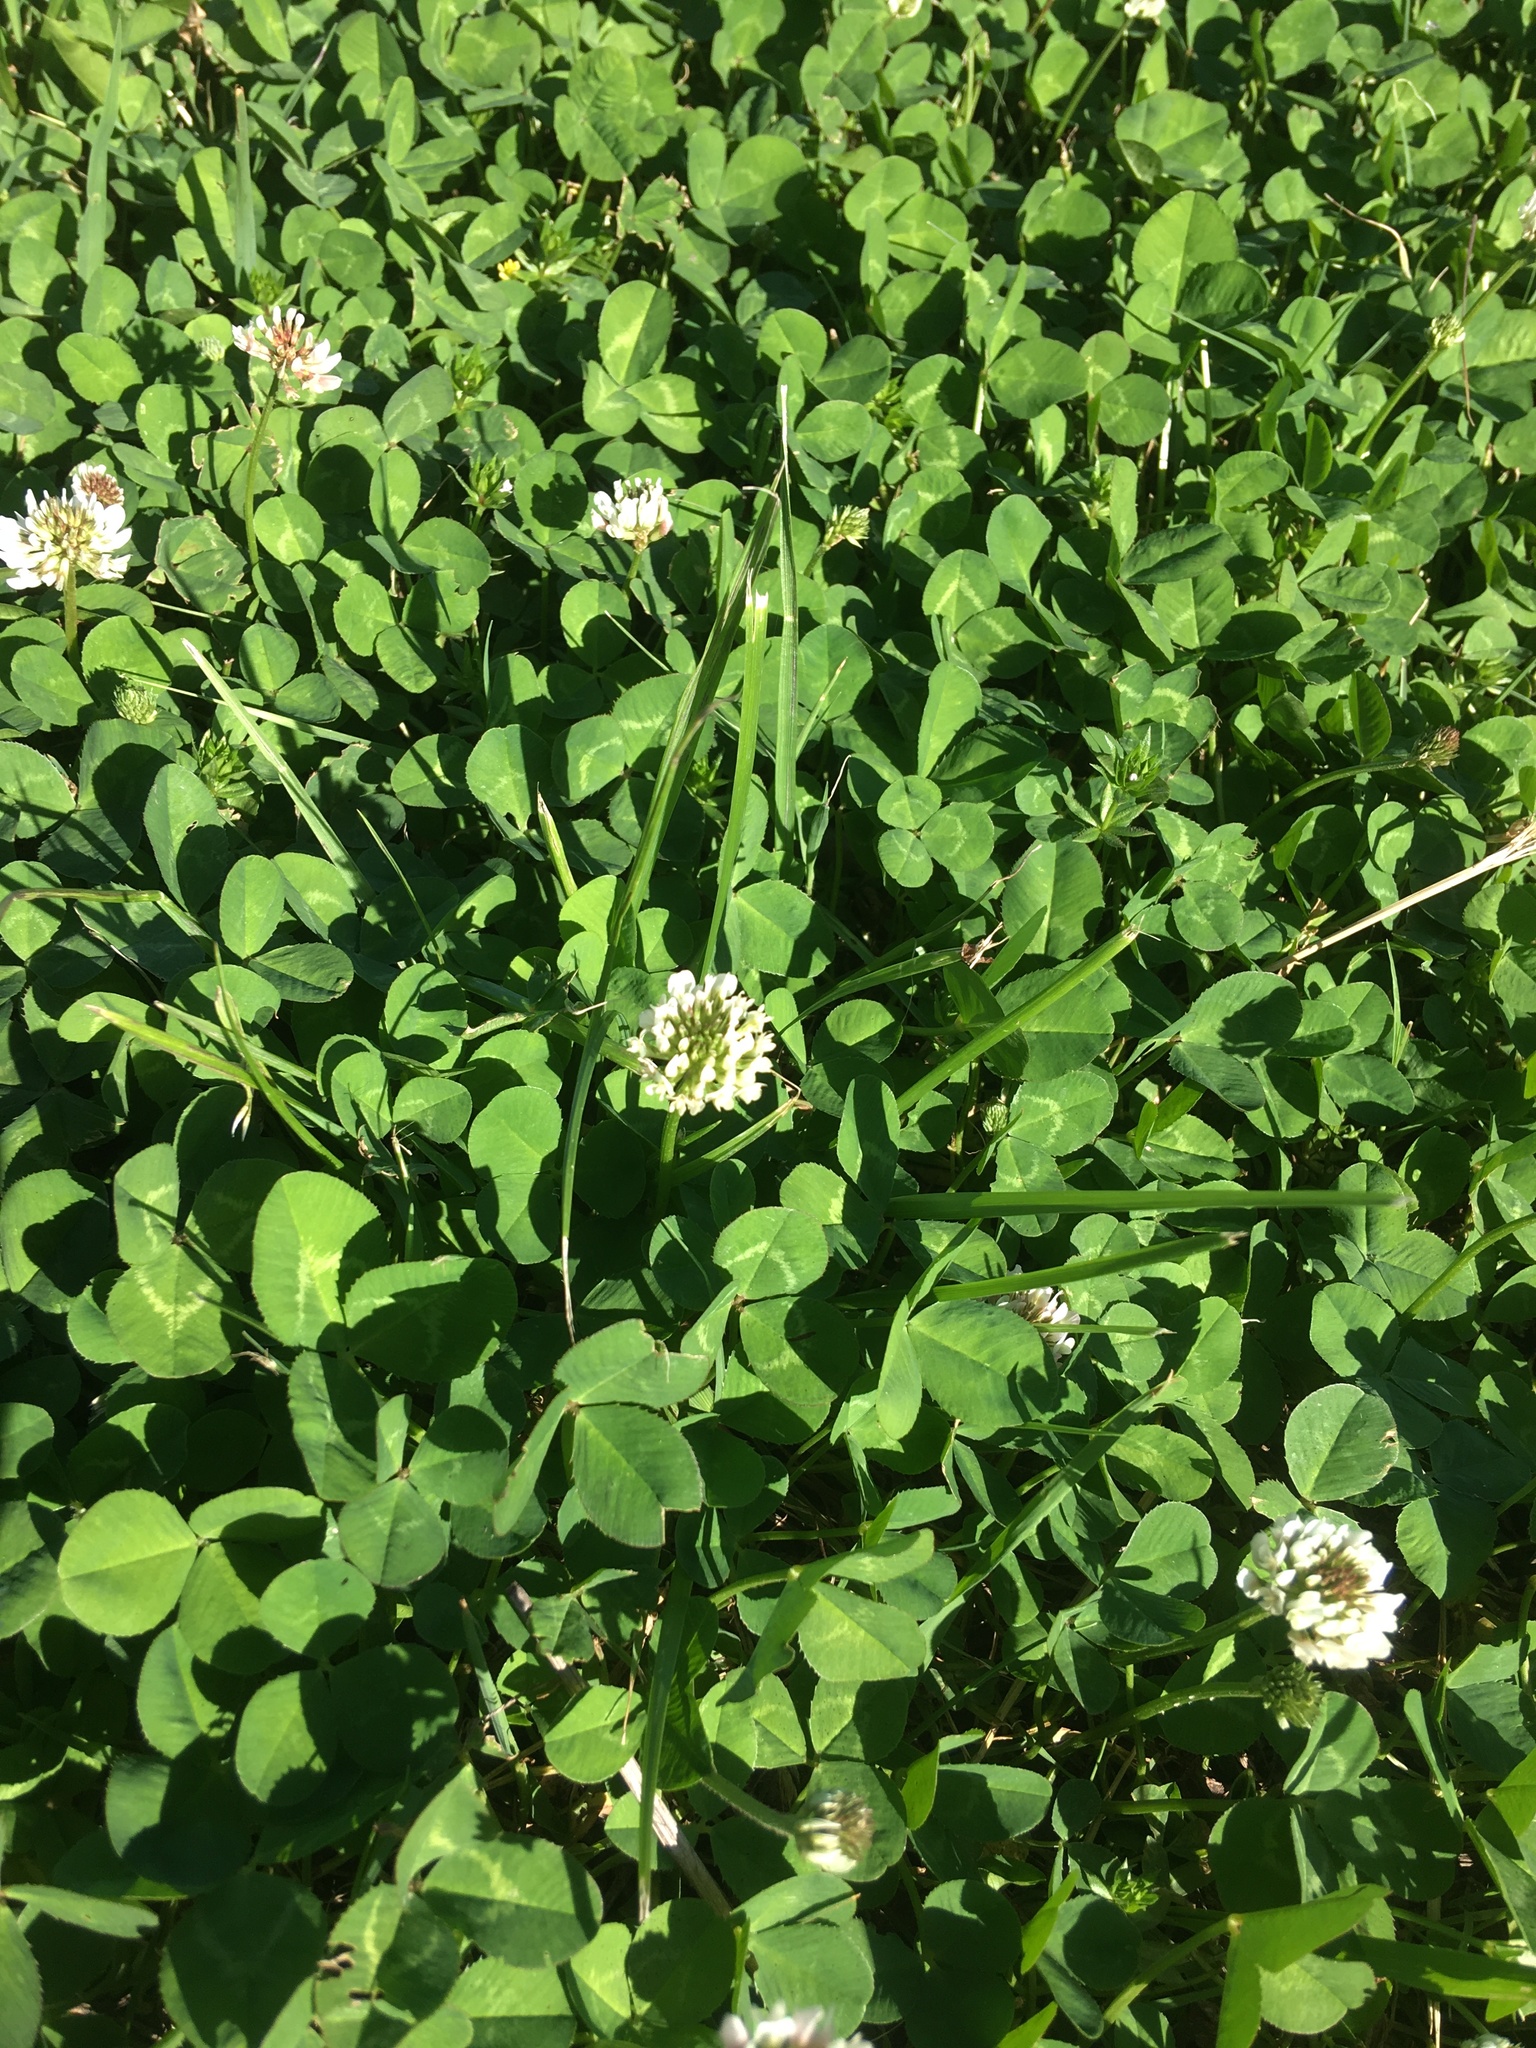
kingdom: Plantae
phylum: Tracheophyta
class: Magnoliopsida
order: Fabales
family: Fabaceae
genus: Trifolium
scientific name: Trifolium repens
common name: White clover
